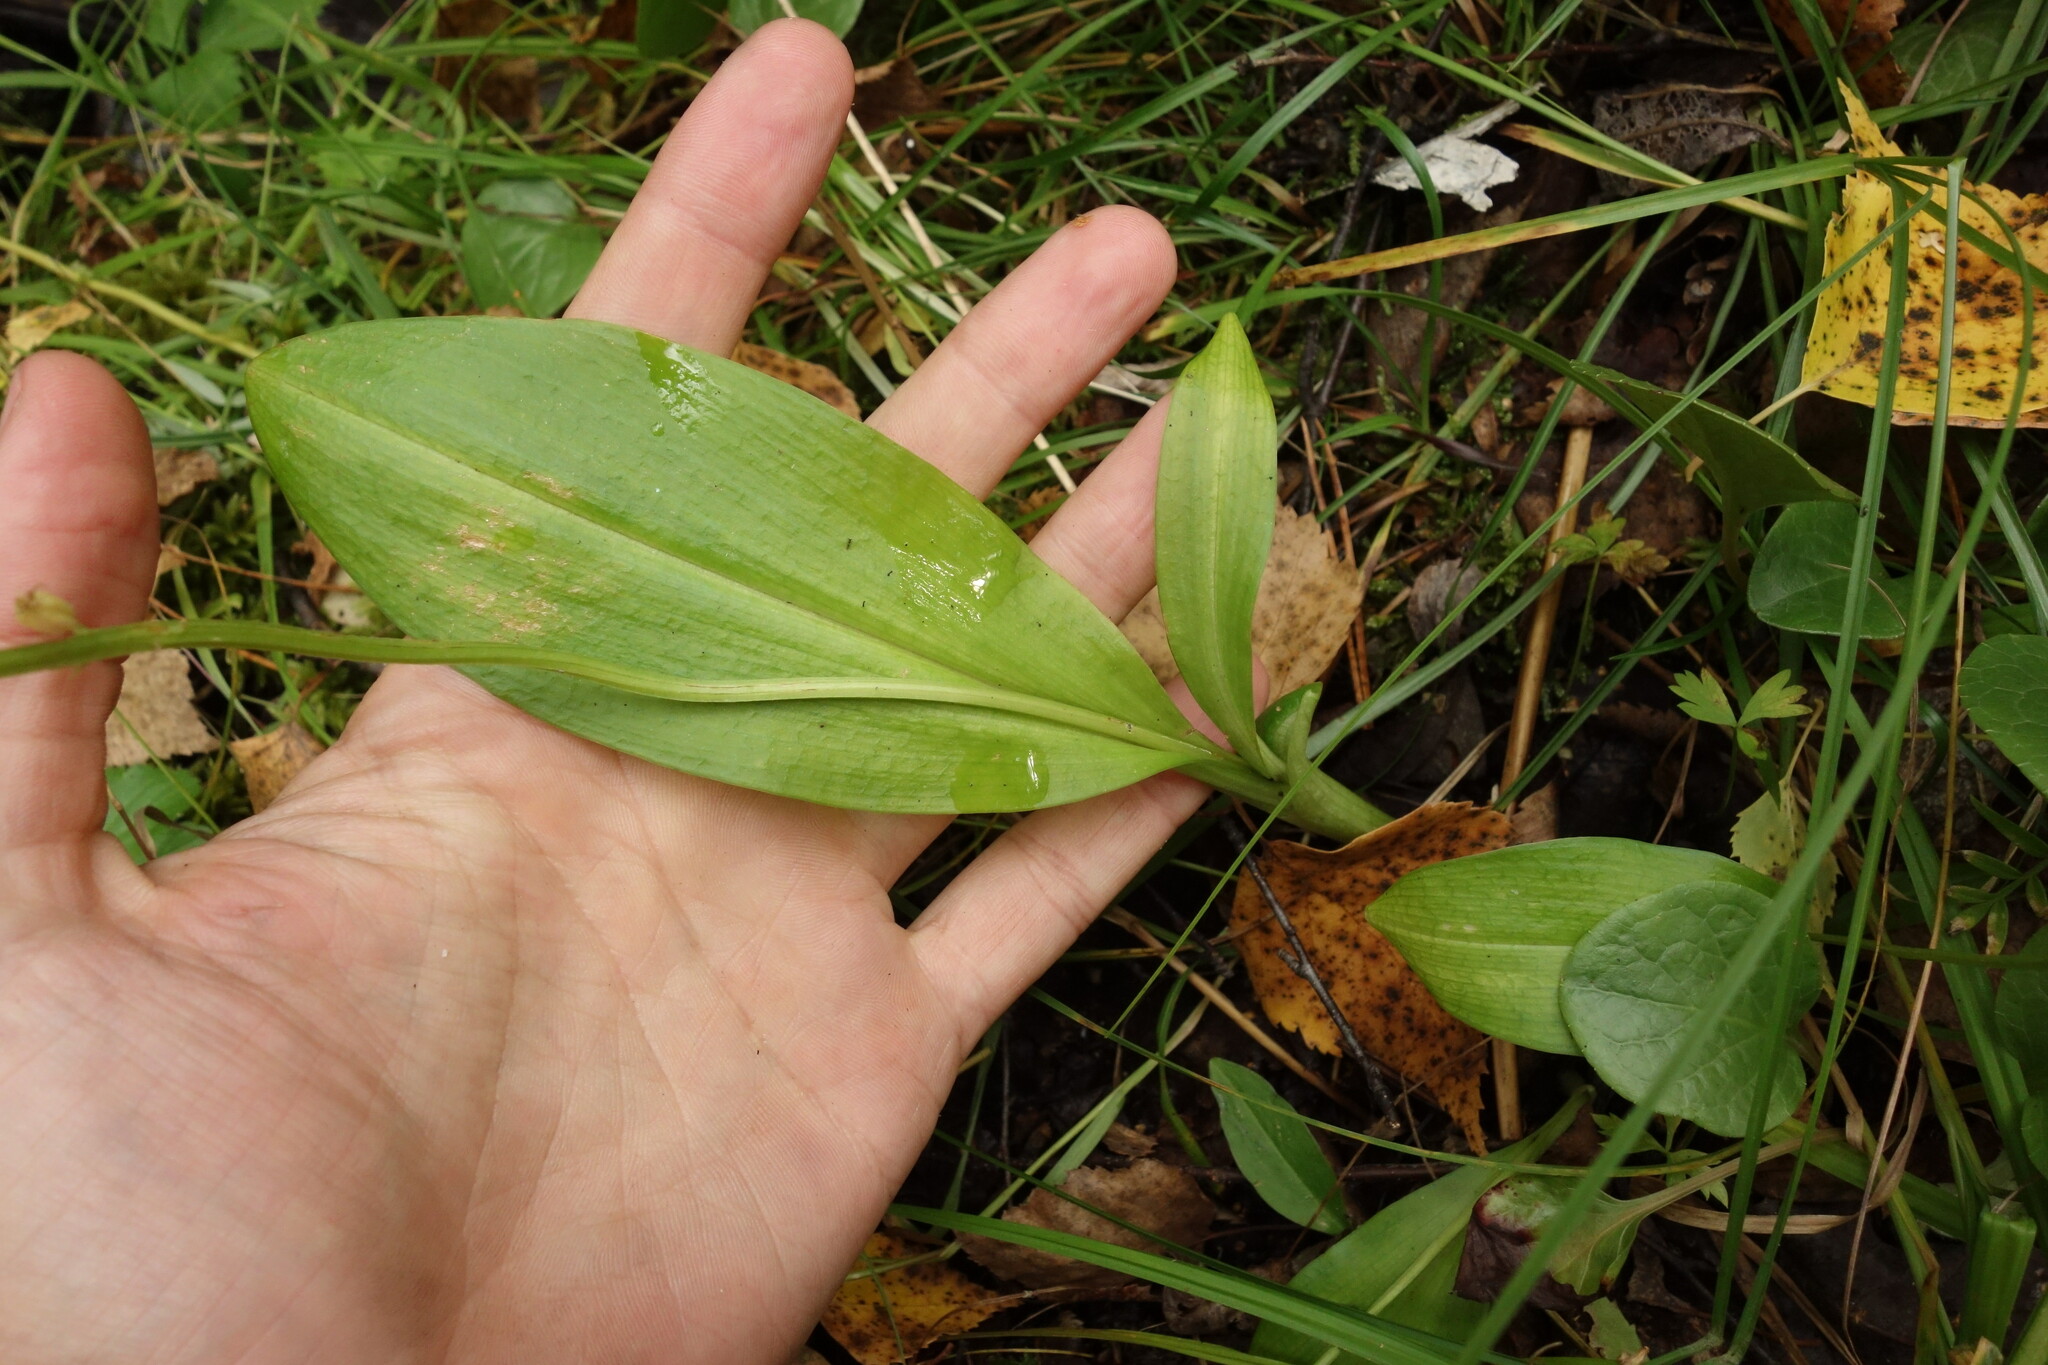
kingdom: Plantae
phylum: Tracheophyta
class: Liliopsida
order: Asparagales
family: Orchidaceae
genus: Malaxis
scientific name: Malaxis monophyllos
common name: White adder's-mouth
